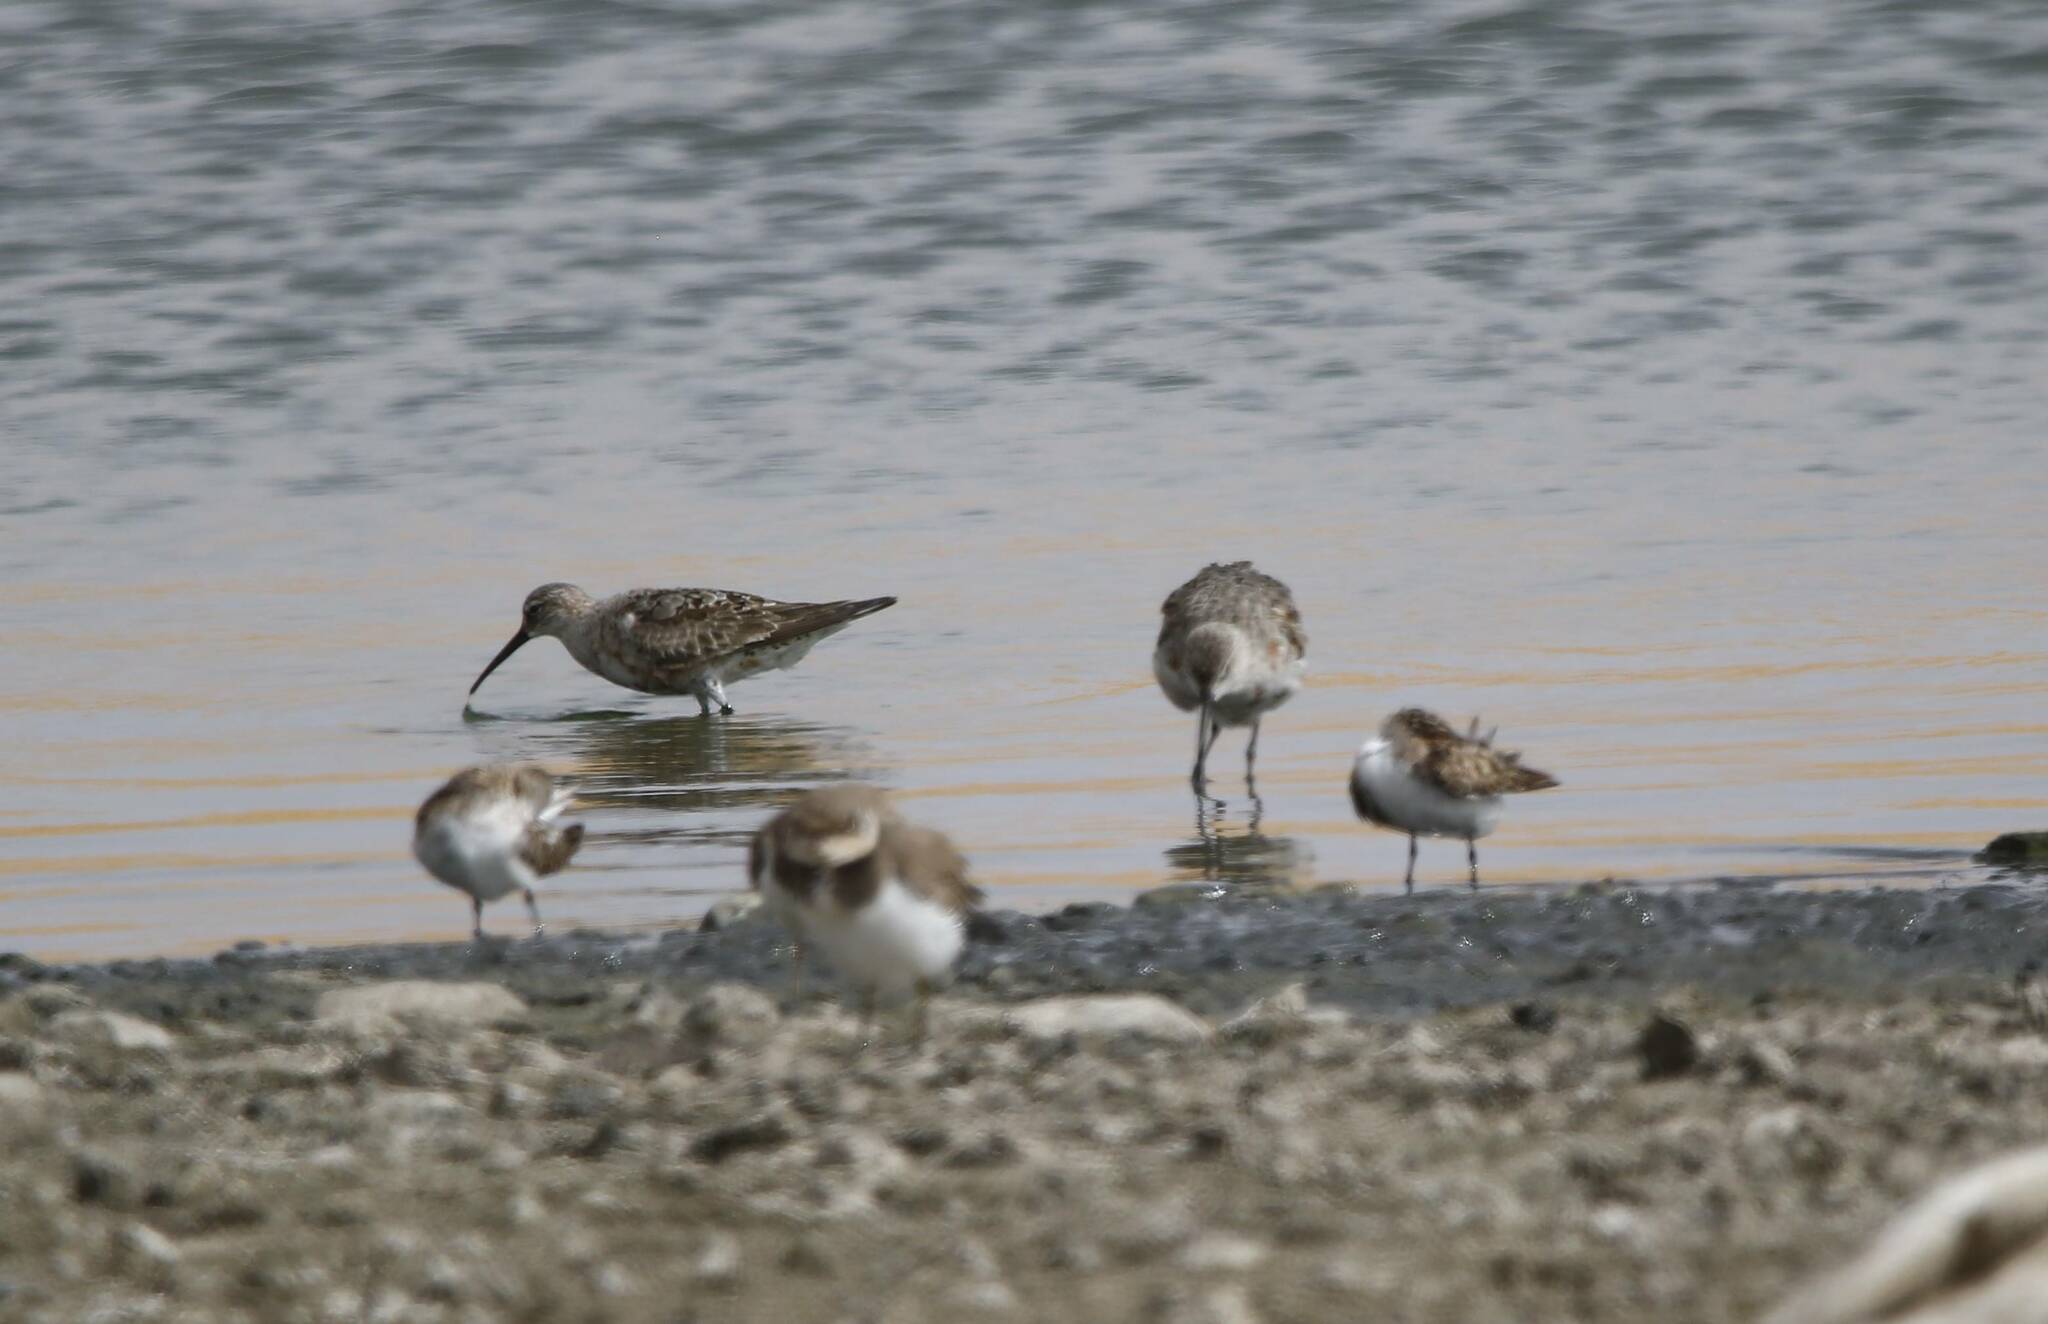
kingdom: Animalia
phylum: Chordata
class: Aves
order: Charadriiformes
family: Scolopacidae
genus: Calidris
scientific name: Calidris ferruginea
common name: Curlew sandpiper
